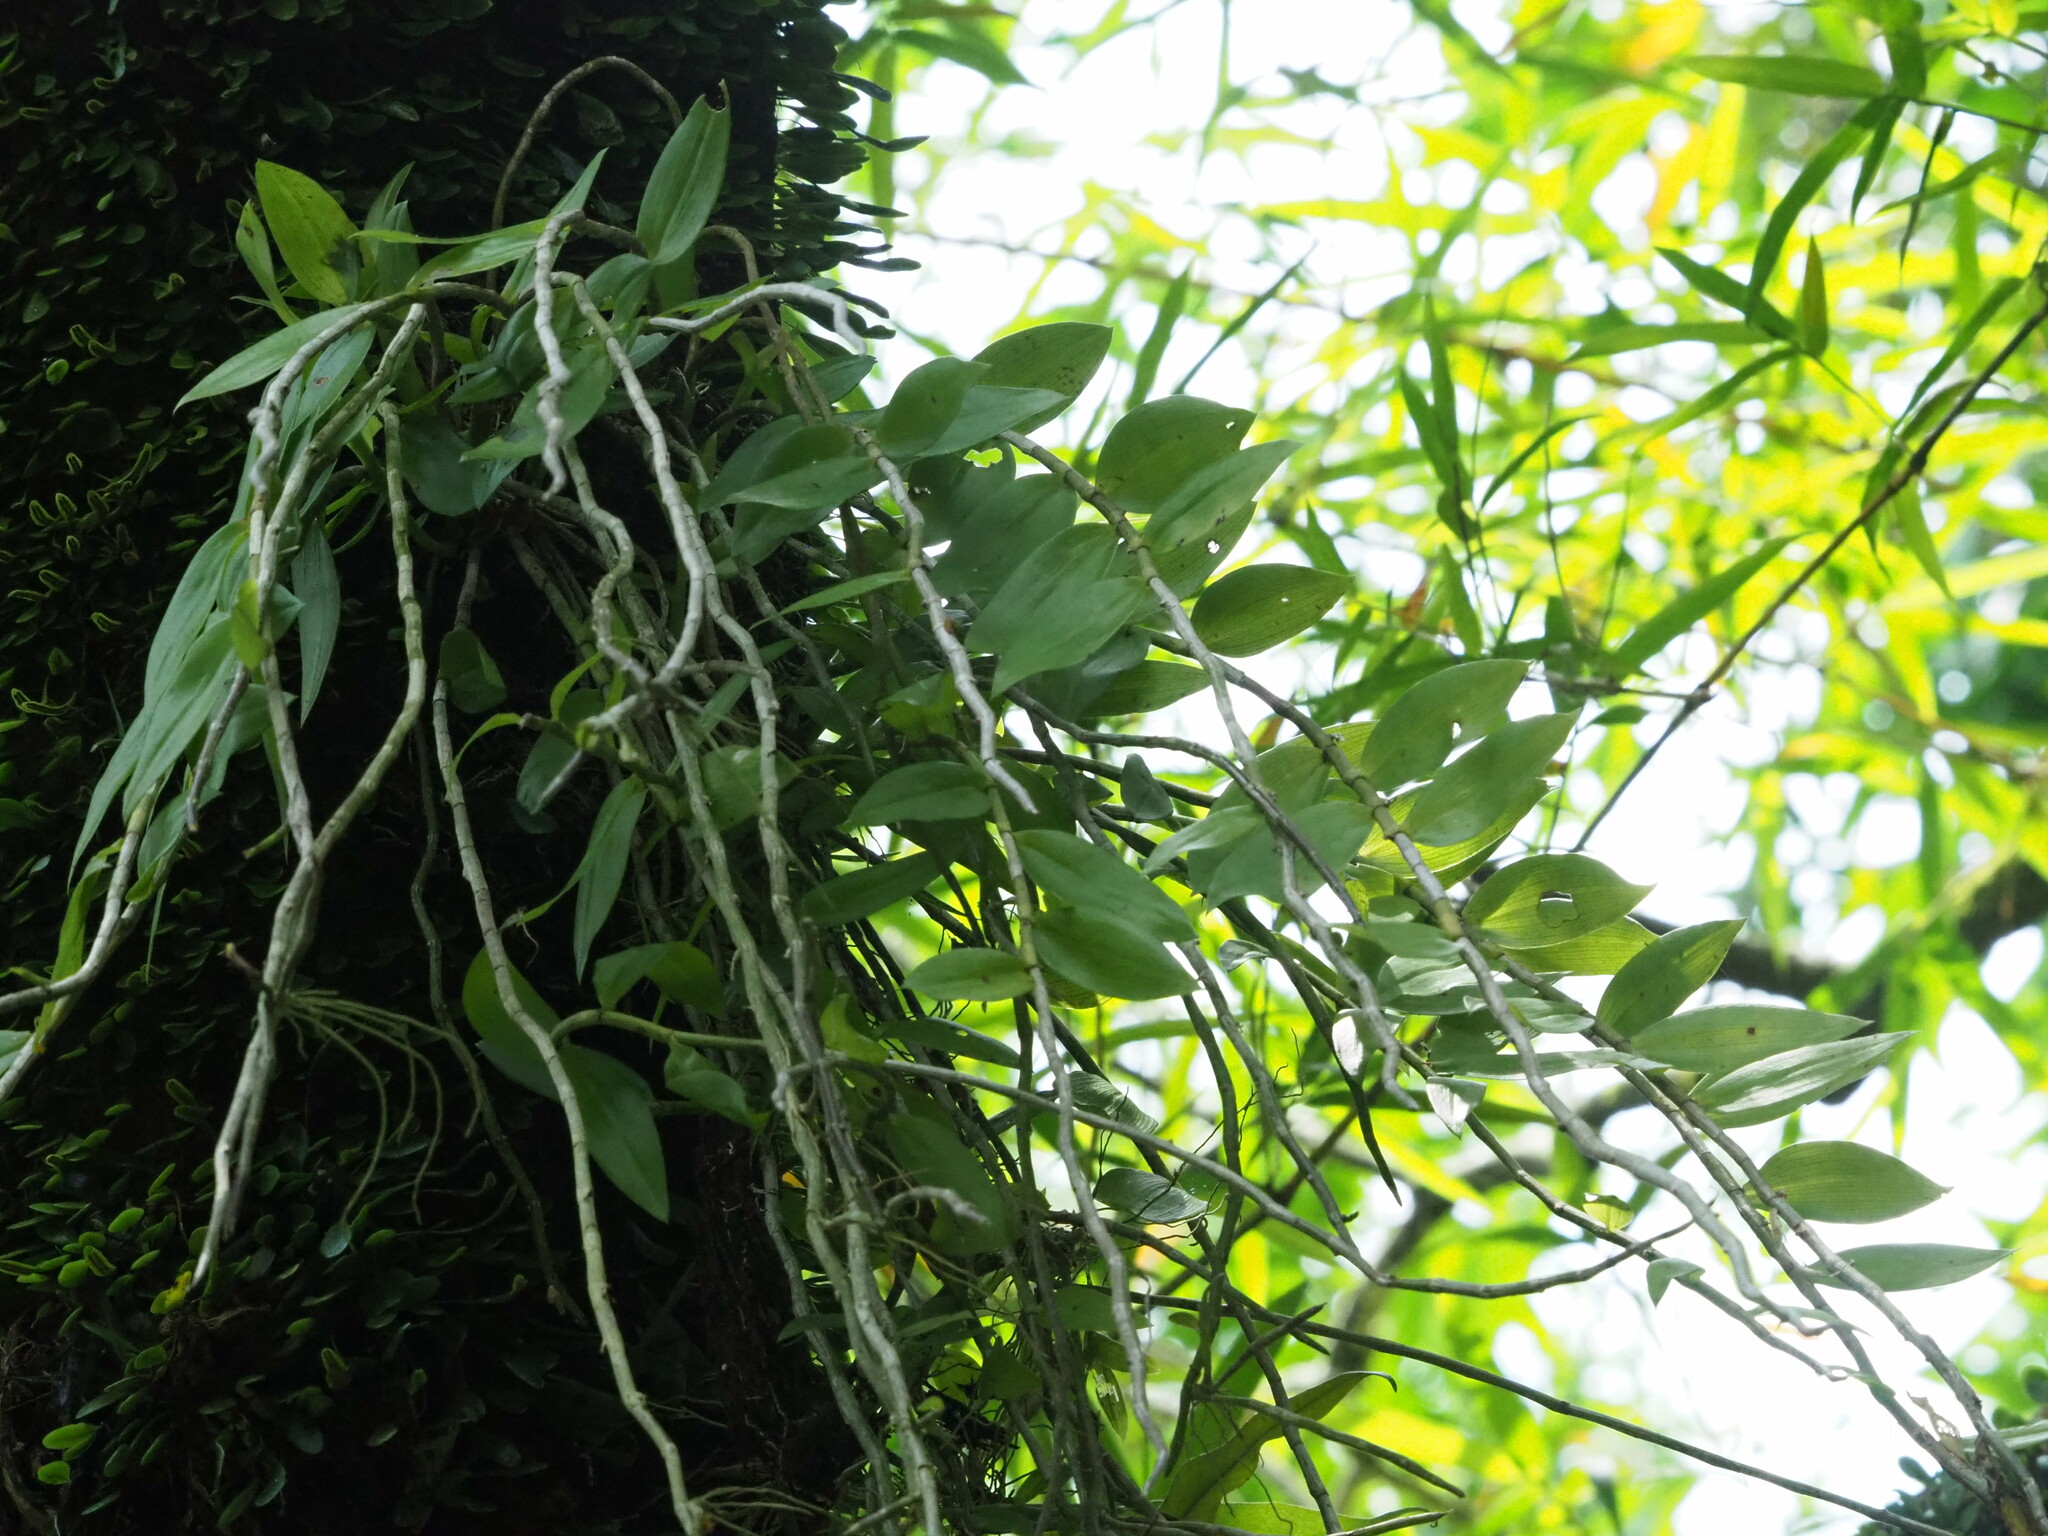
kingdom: Plantae
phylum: Tracheophyta
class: Liliopsida
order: Asparagales
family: Orchidaceae
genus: Dendrobium
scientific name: Dendrobium aphyllum
